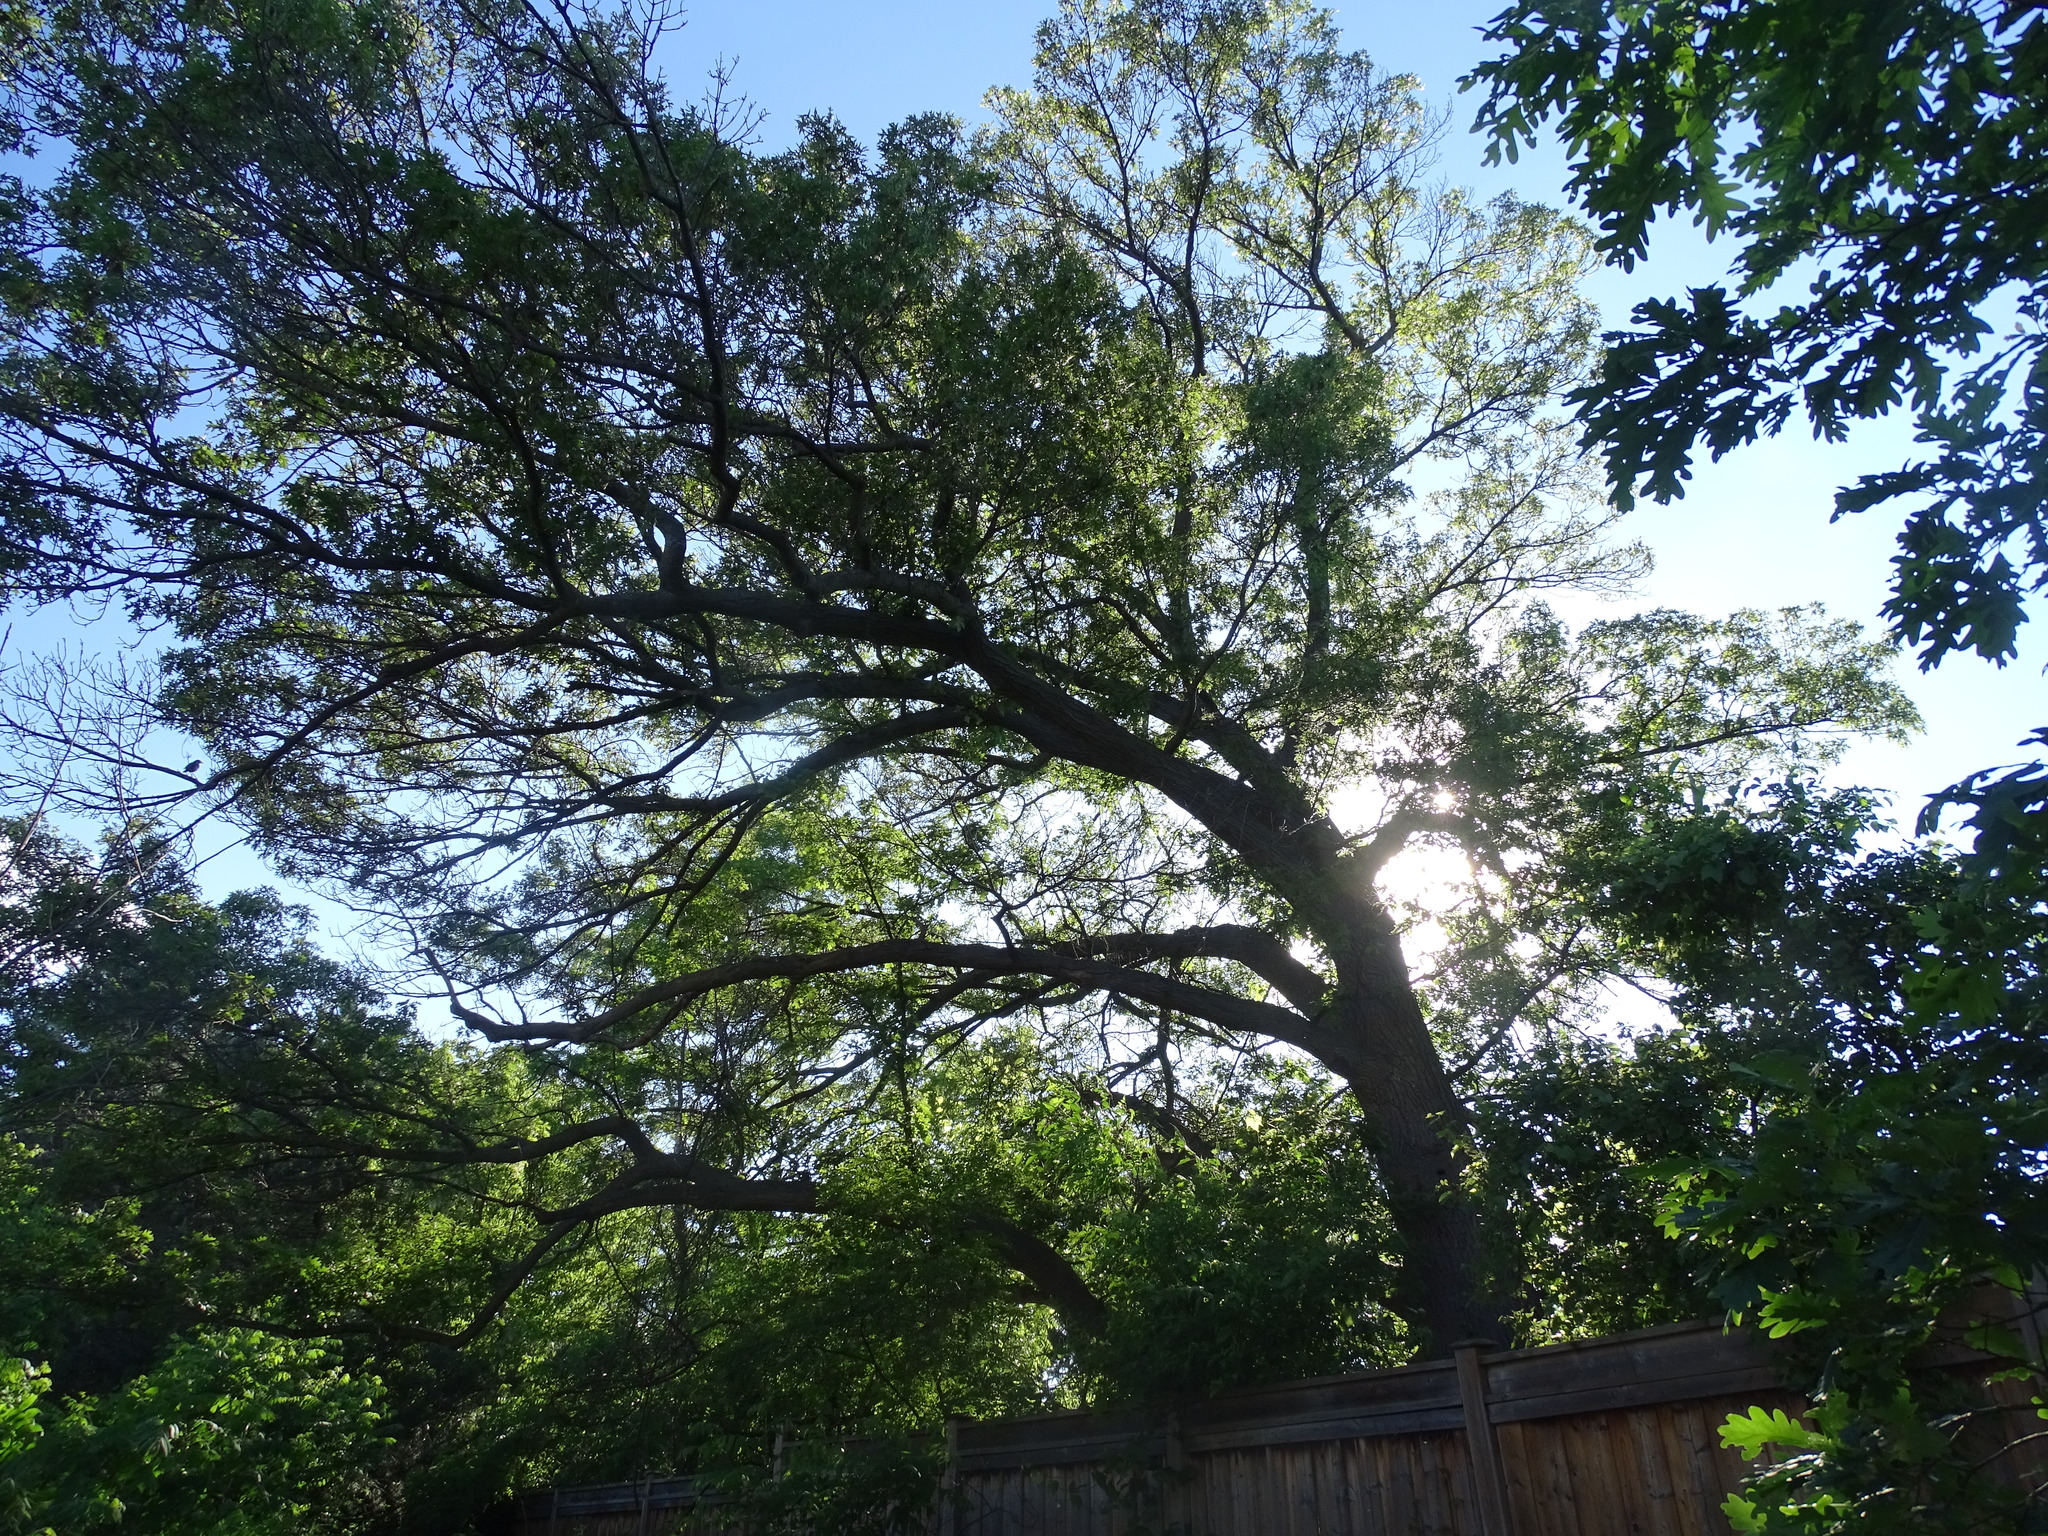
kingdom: Plantae
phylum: Tracheophyta
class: Magnoliopsida
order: Fagales
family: Fagaceae
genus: Quercus
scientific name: Quercus velutina
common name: Black oak
